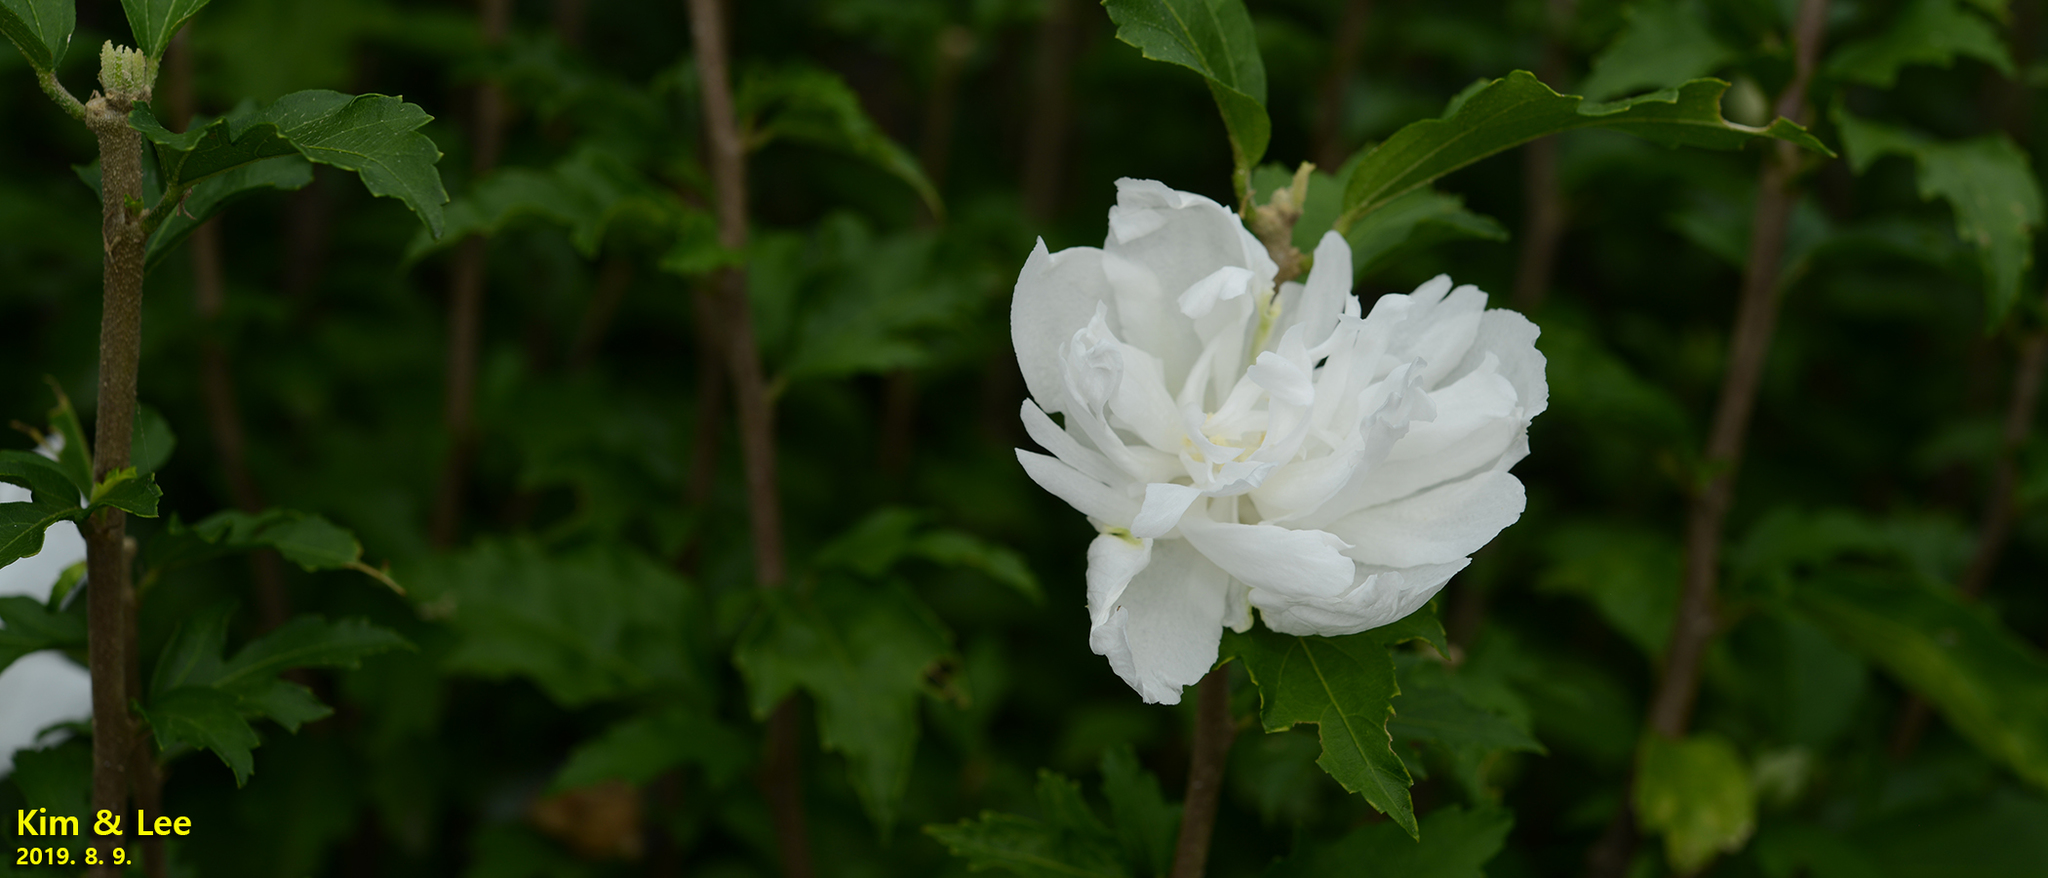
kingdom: Plantae
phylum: Tracheophyta
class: Magnoliopsida
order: Malvales
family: Malvaceae
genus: Hibiscus
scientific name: Hibiscus syriacus
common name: Syrian ketmia
